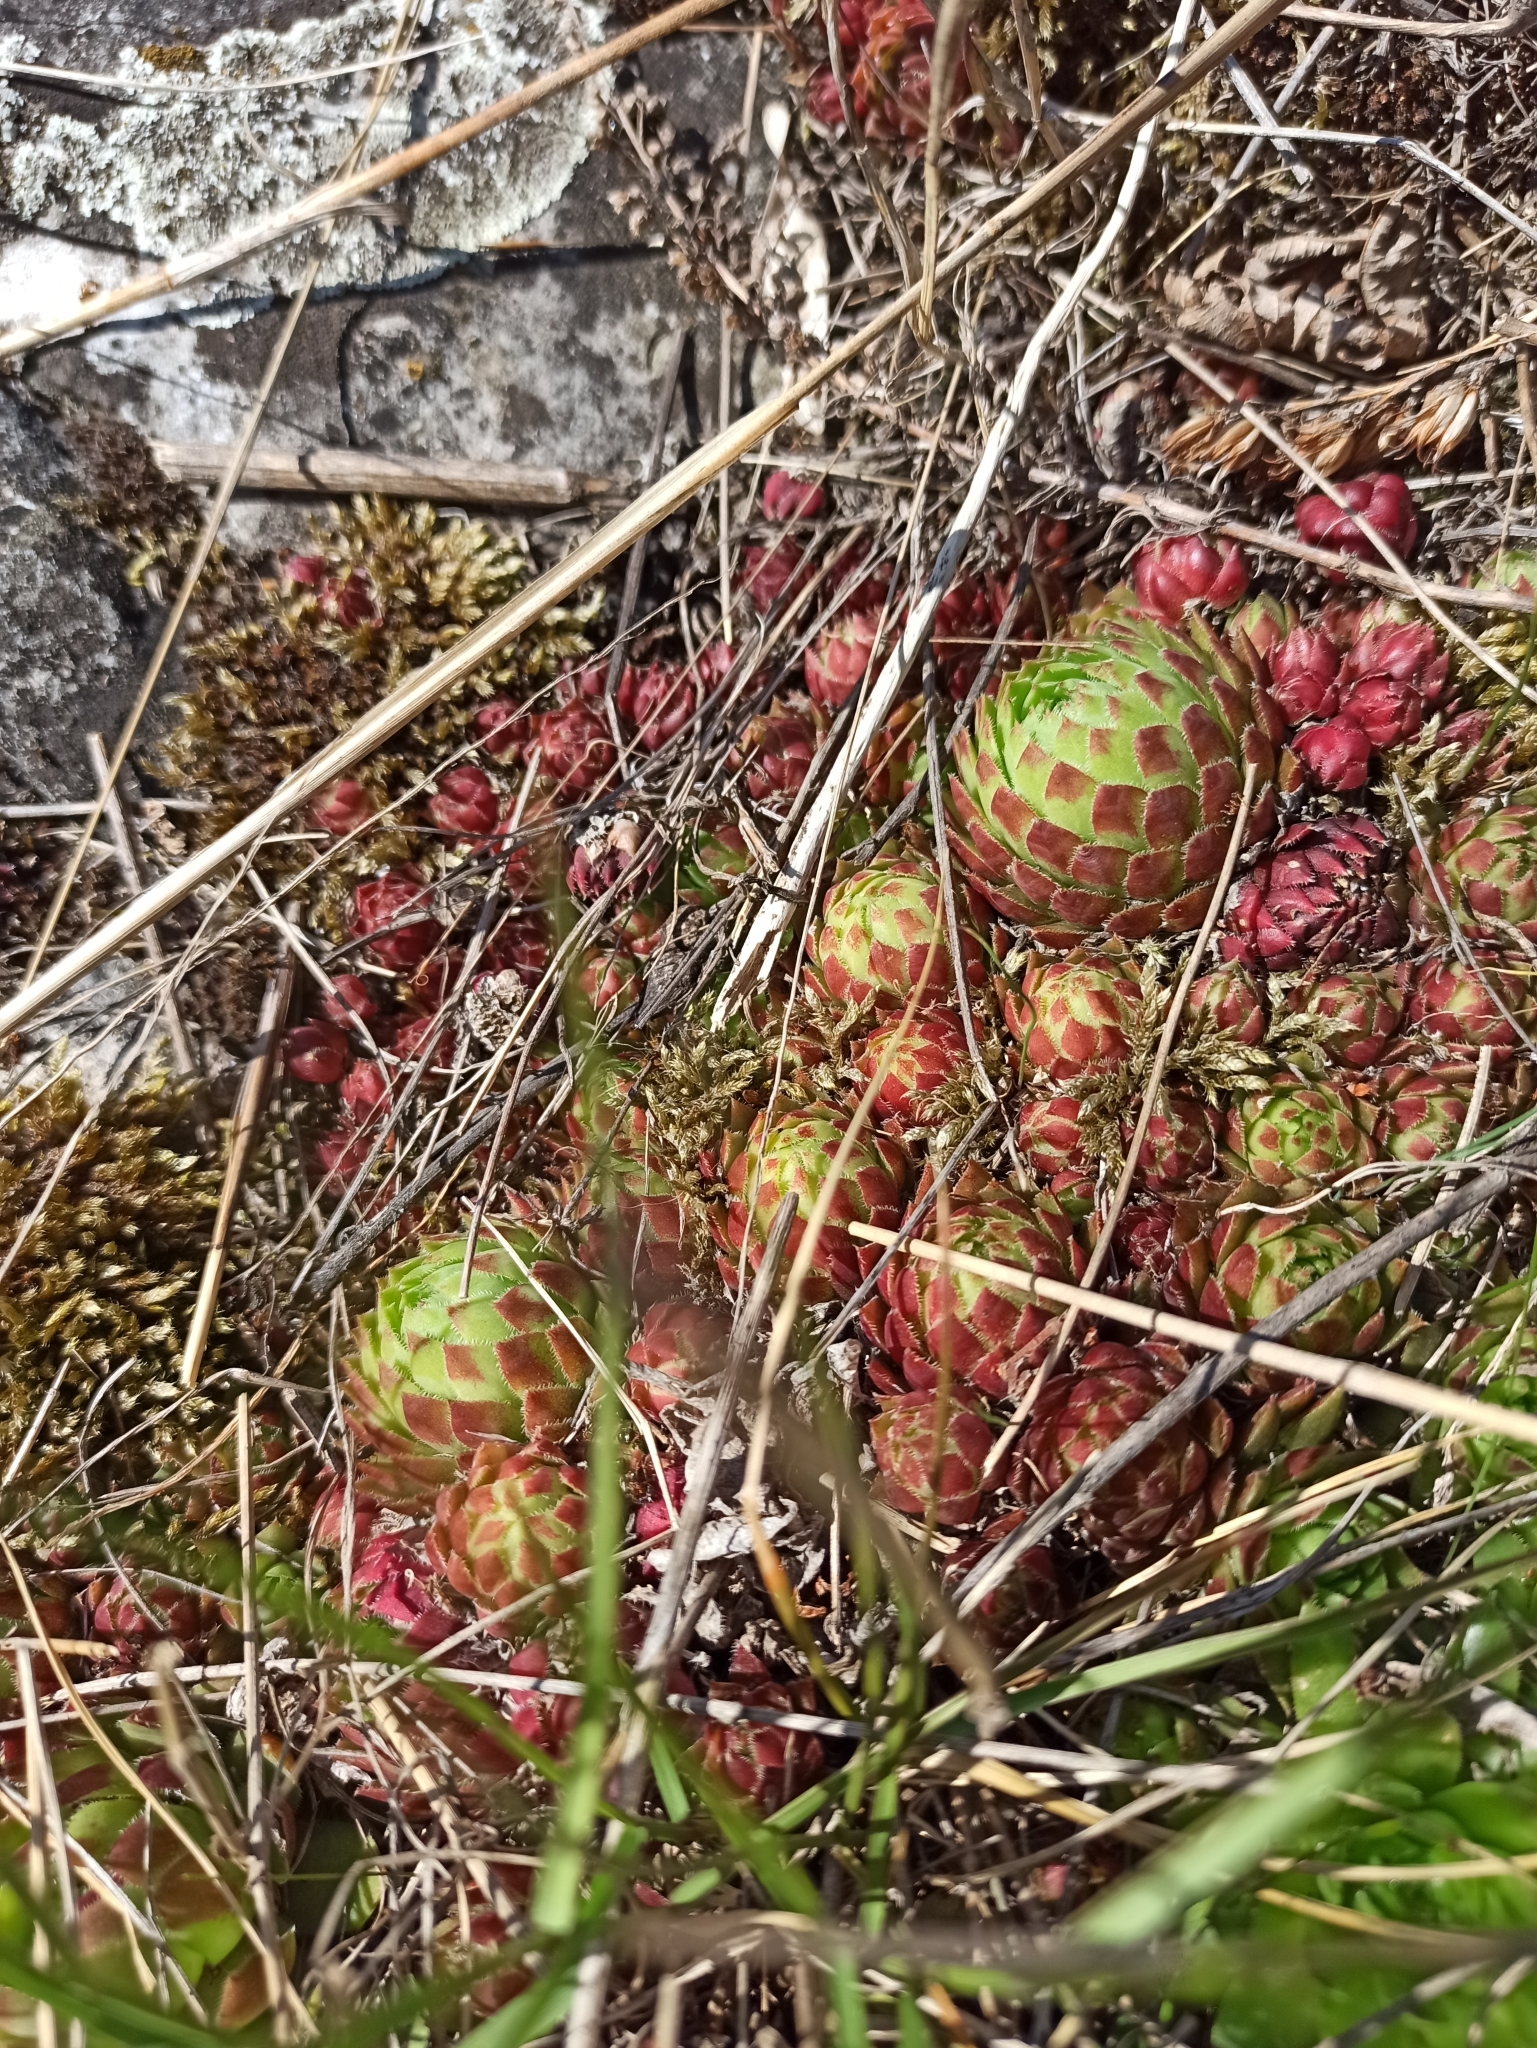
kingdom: Plantae
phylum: Tracheophyta
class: Magnoliopsida
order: Saxifragales
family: Crassulaceae
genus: Sempervivum
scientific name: Sempervivum globiferum
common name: Rolling hen-and-chicks
